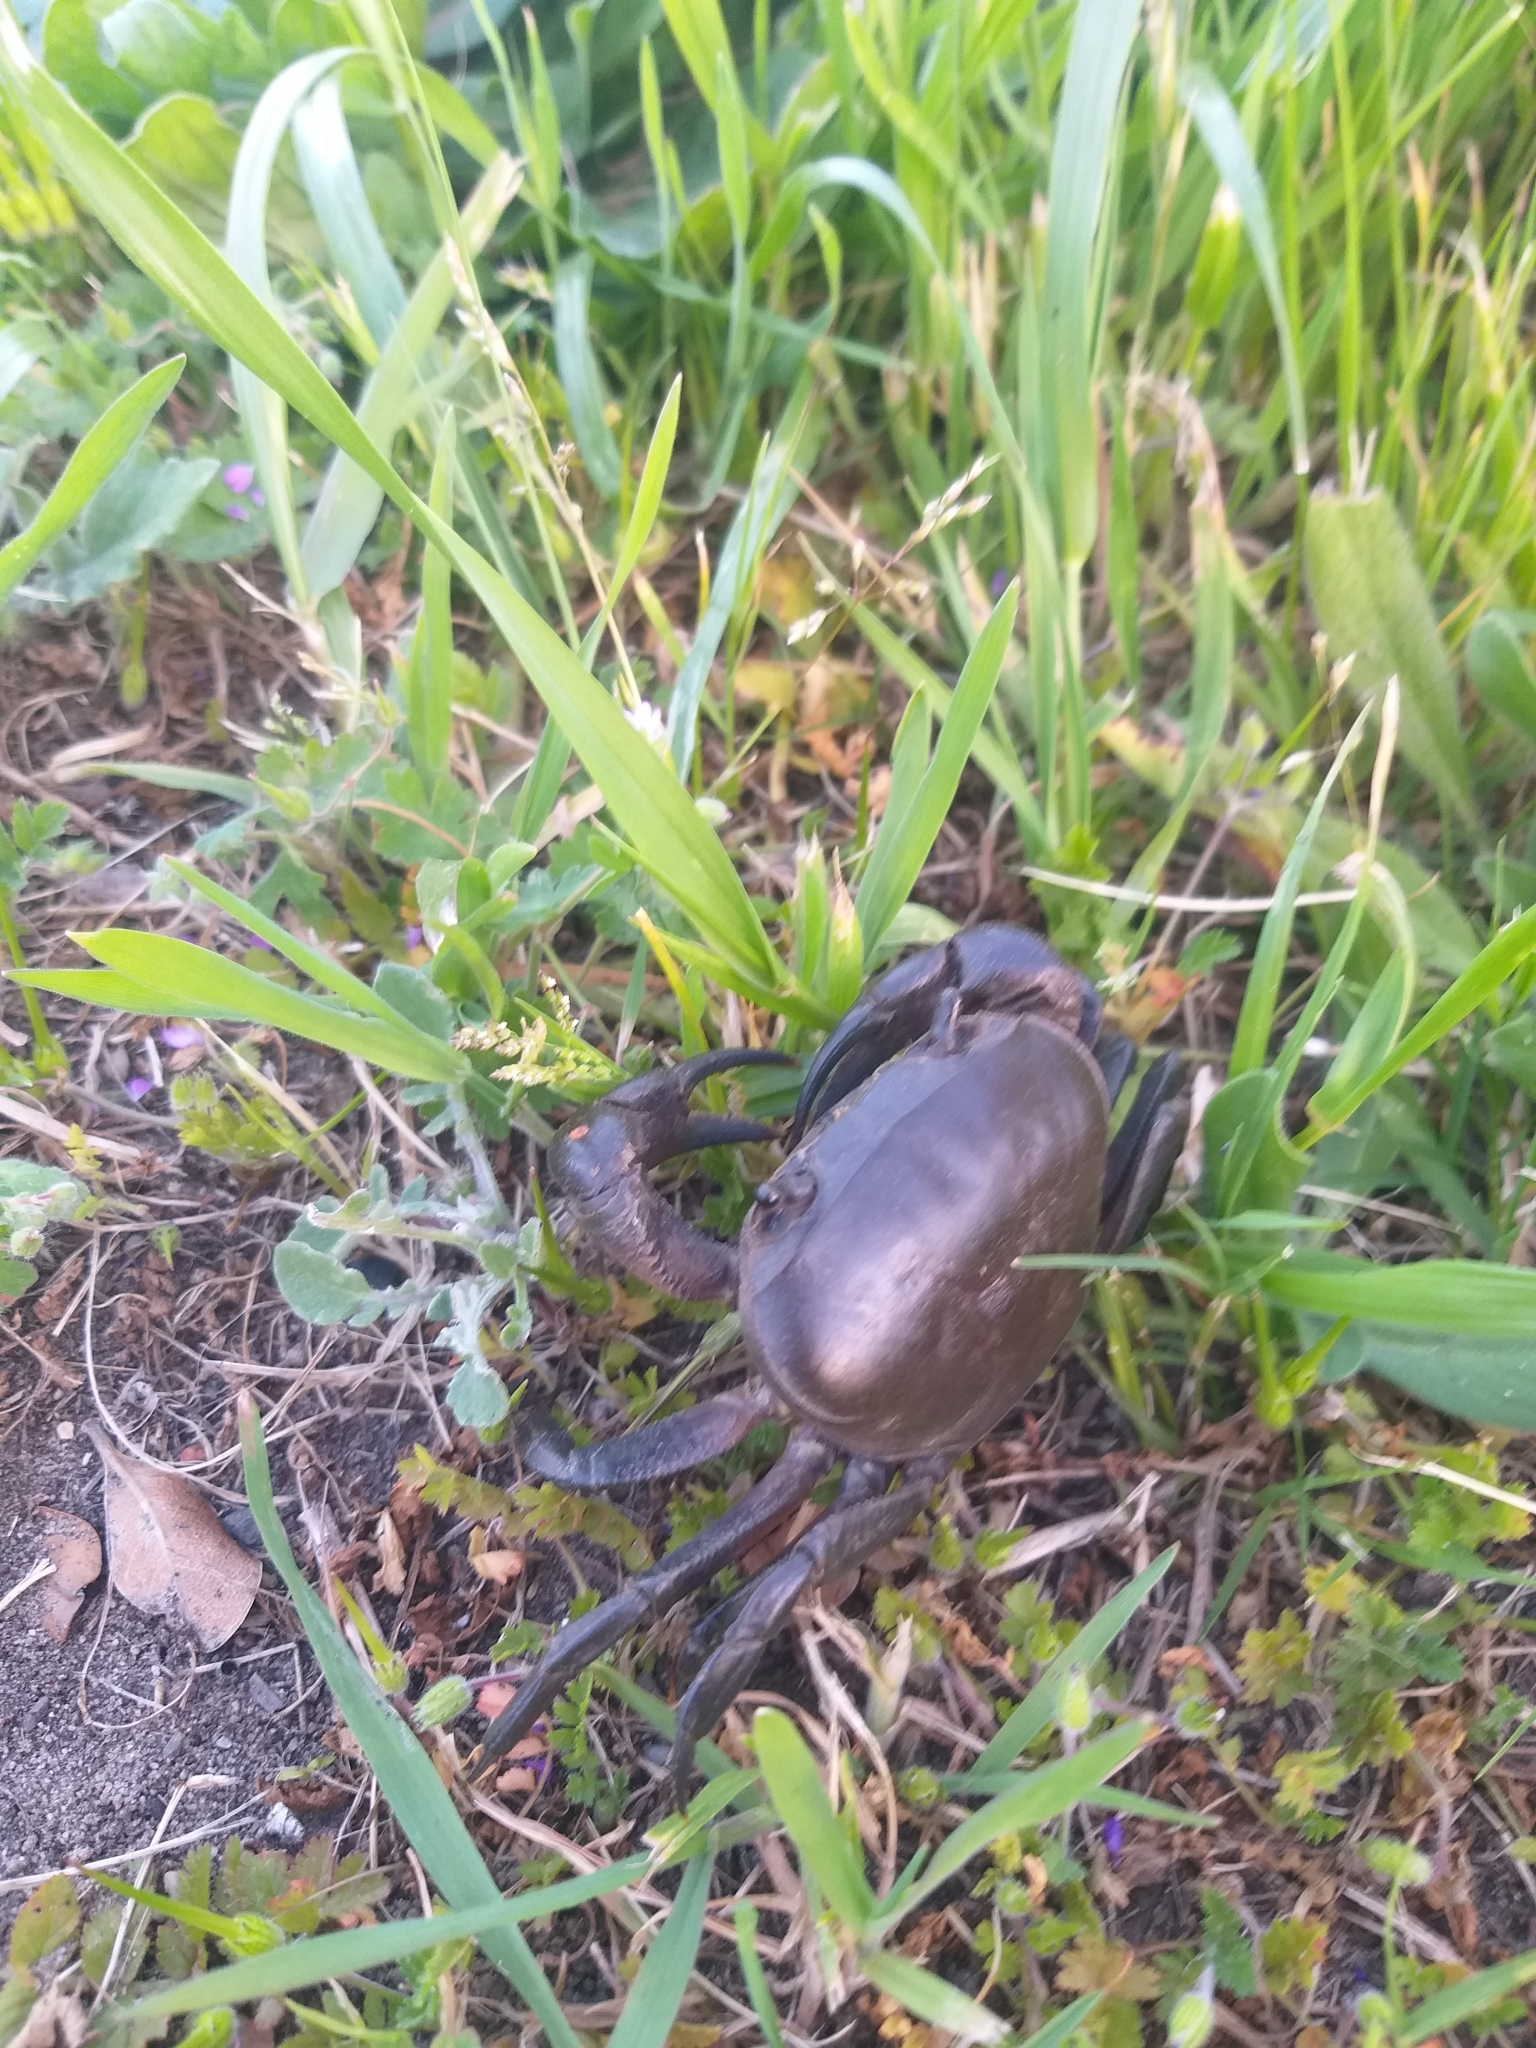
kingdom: Animalia
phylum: Arthropoda
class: Malacostraca
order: Decapoda
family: Potamonautidae
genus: Potamonautes
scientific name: Potamonautes perlatus
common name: Cape river crab
